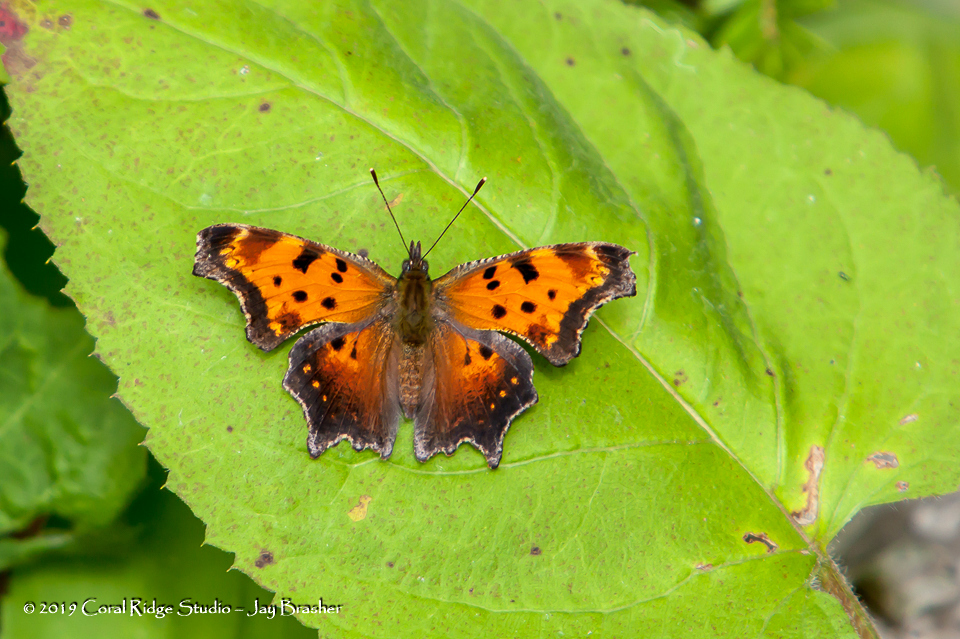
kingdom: Animalia
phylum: Arthropoda
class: Insecta
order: Lepidoptera
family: Nymphalidae
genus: Polygonia
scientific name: Polygonia progne
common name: Gray comma
